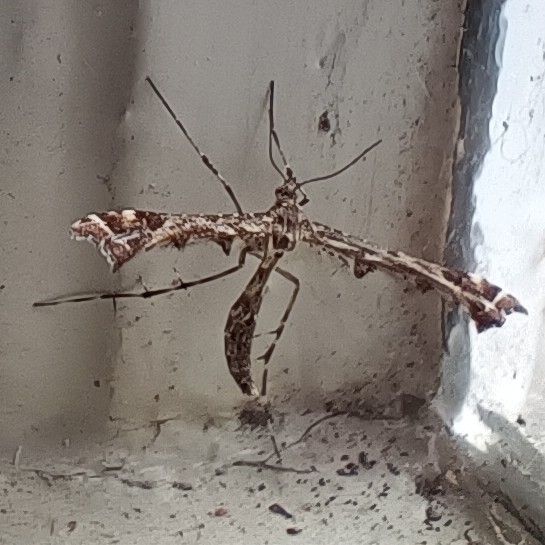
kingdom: Animalia
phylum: Arthropoda
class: Insecta
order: Lepidoptera
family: Pterophoridae
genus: Amblyptilia
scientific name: Amblyptilia acanthadactyla
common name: Beautiful plume
